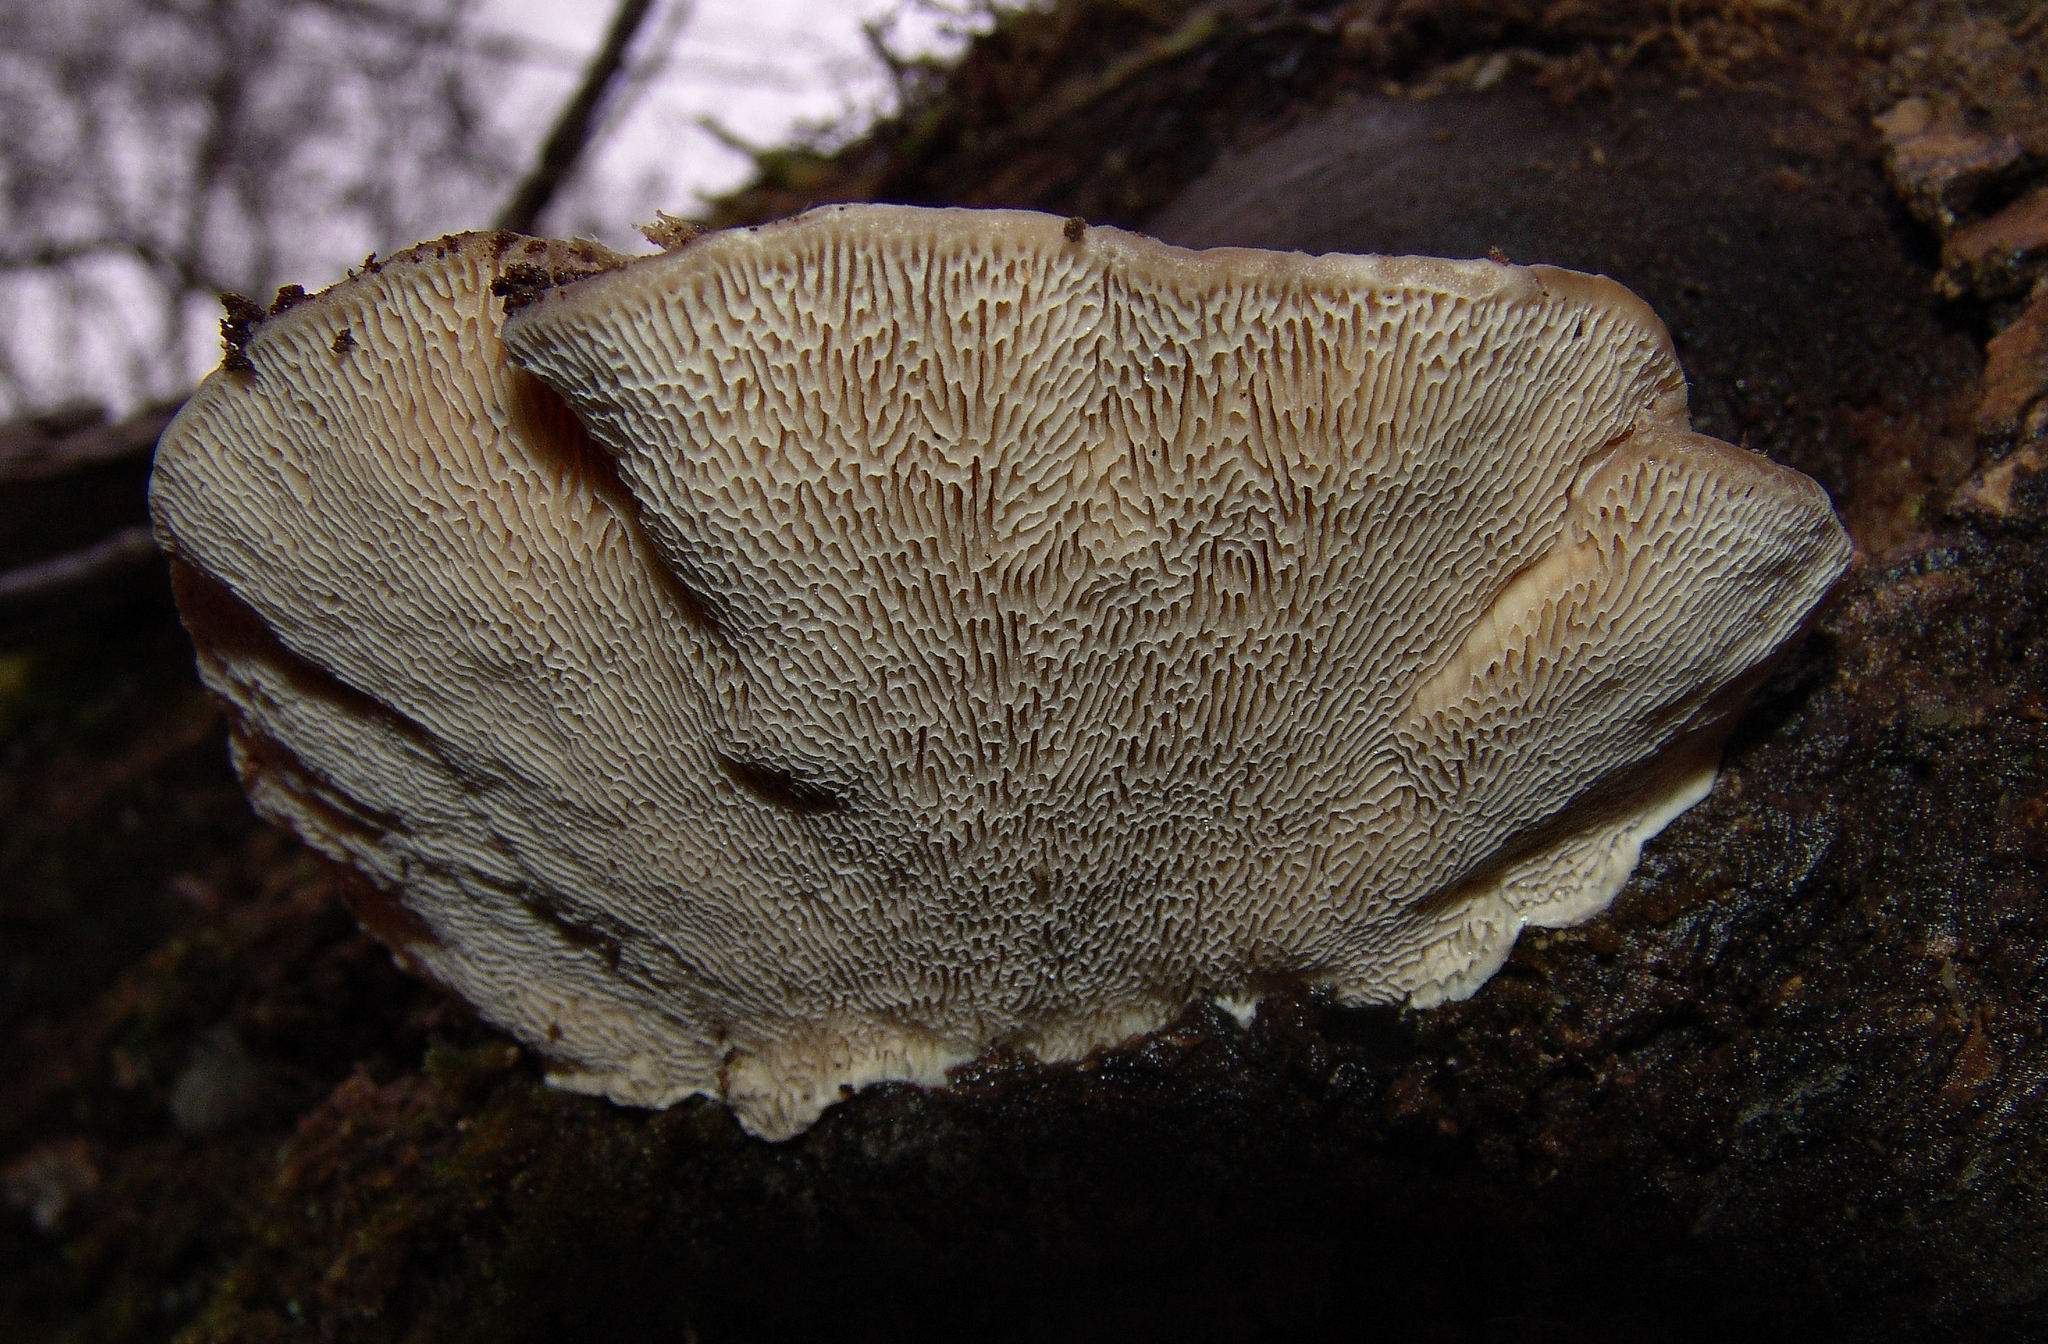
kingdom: Fungi
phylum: Basidiomycota
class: Agaricomycetes
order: Polyporales
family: Polyporaceae
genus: Trametes
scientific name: Trametes gibbosa
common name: Lumpy bracket
